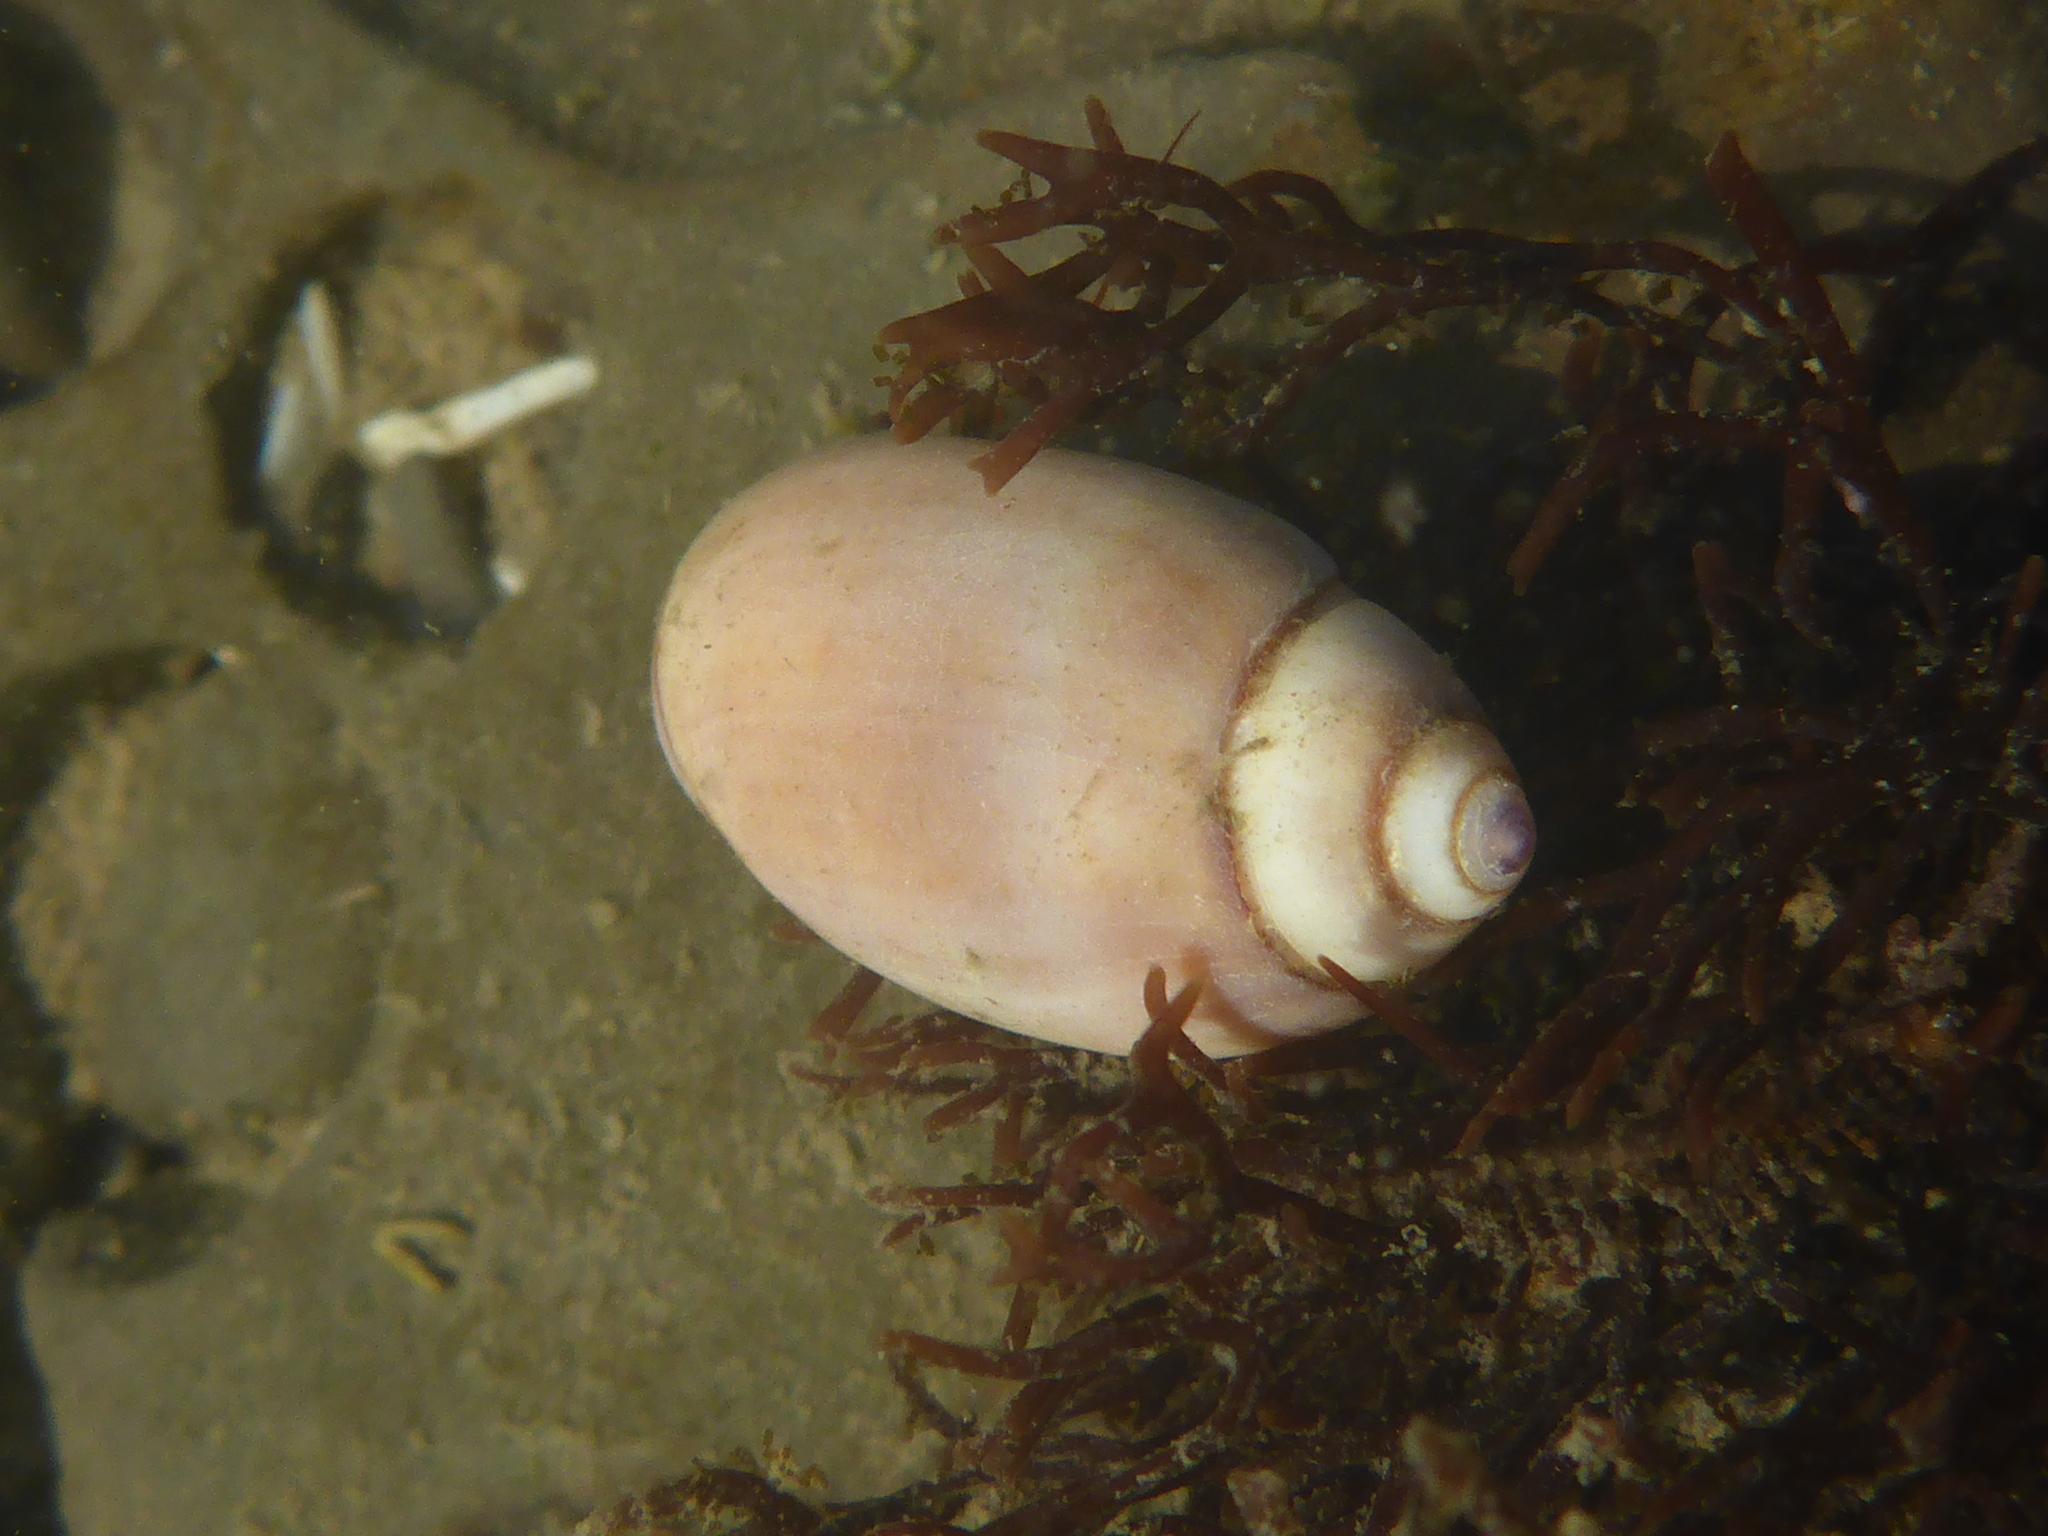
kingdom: Animalia
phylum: Arthropoda
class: Malacostraca
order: Decapoda
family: Paguridae
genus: Pagurus
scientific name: Pagurus granosimanus
